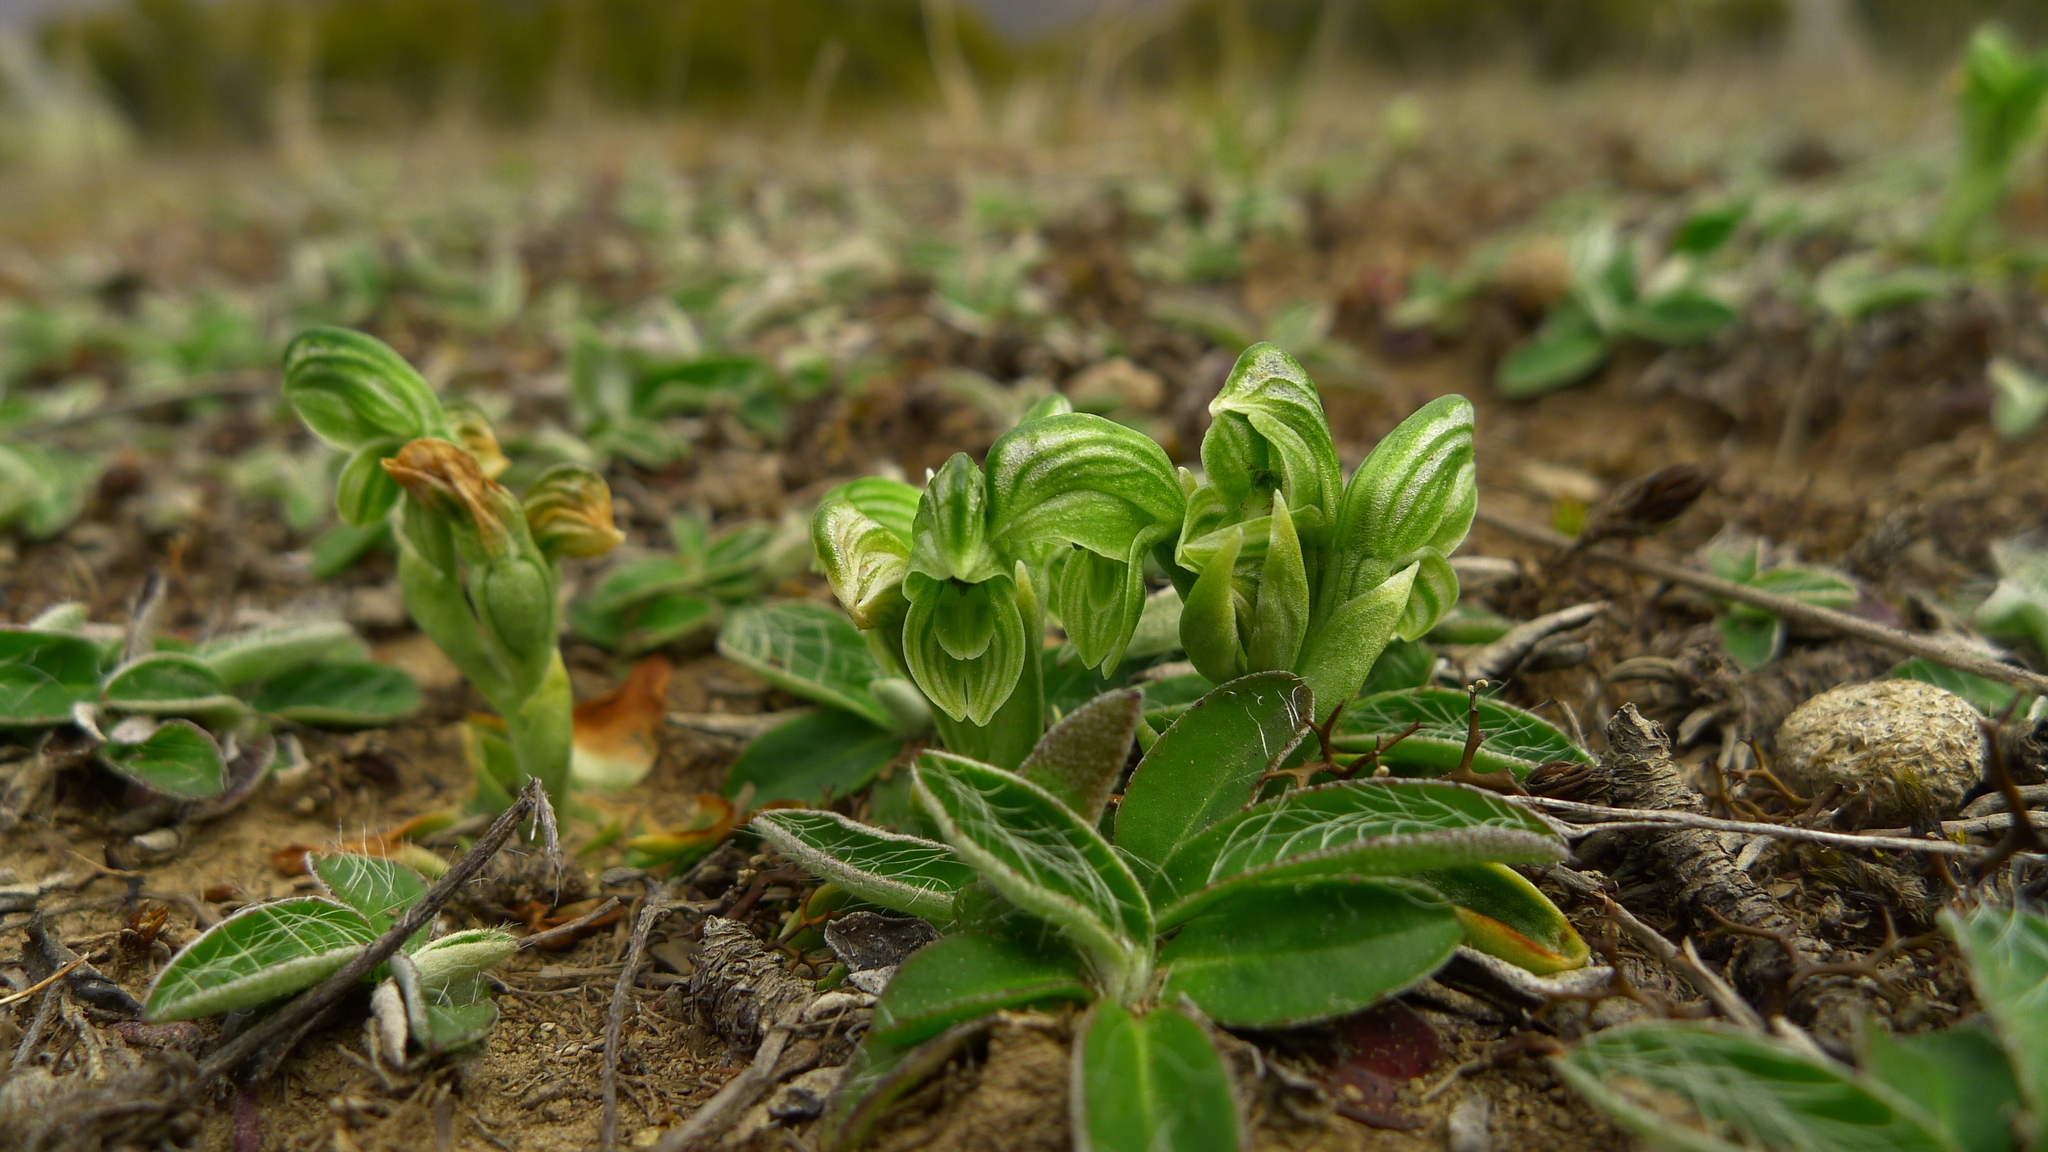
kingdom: Plantae
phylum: Tracheophyta
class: Liliopsida
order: Asparagales
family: Orchidaceae
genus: Pterostylis
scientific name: Pterostylis tanypoda
